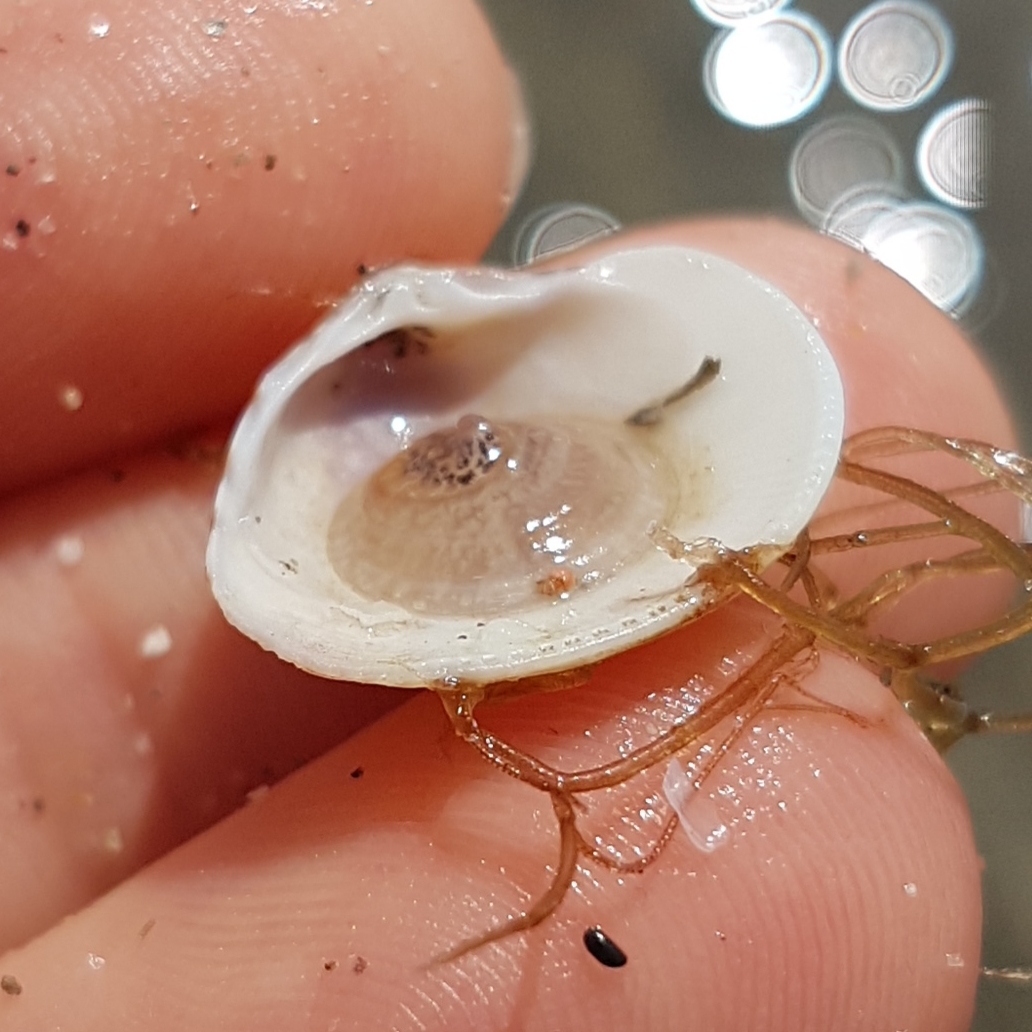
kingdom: Animalia
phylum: Mollusca
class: Gastropoda
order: Littorinimorpha
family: Calyptraeidae
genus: Calyptraea
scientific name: Calyptraea chinensis
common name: Chinaman's hat
